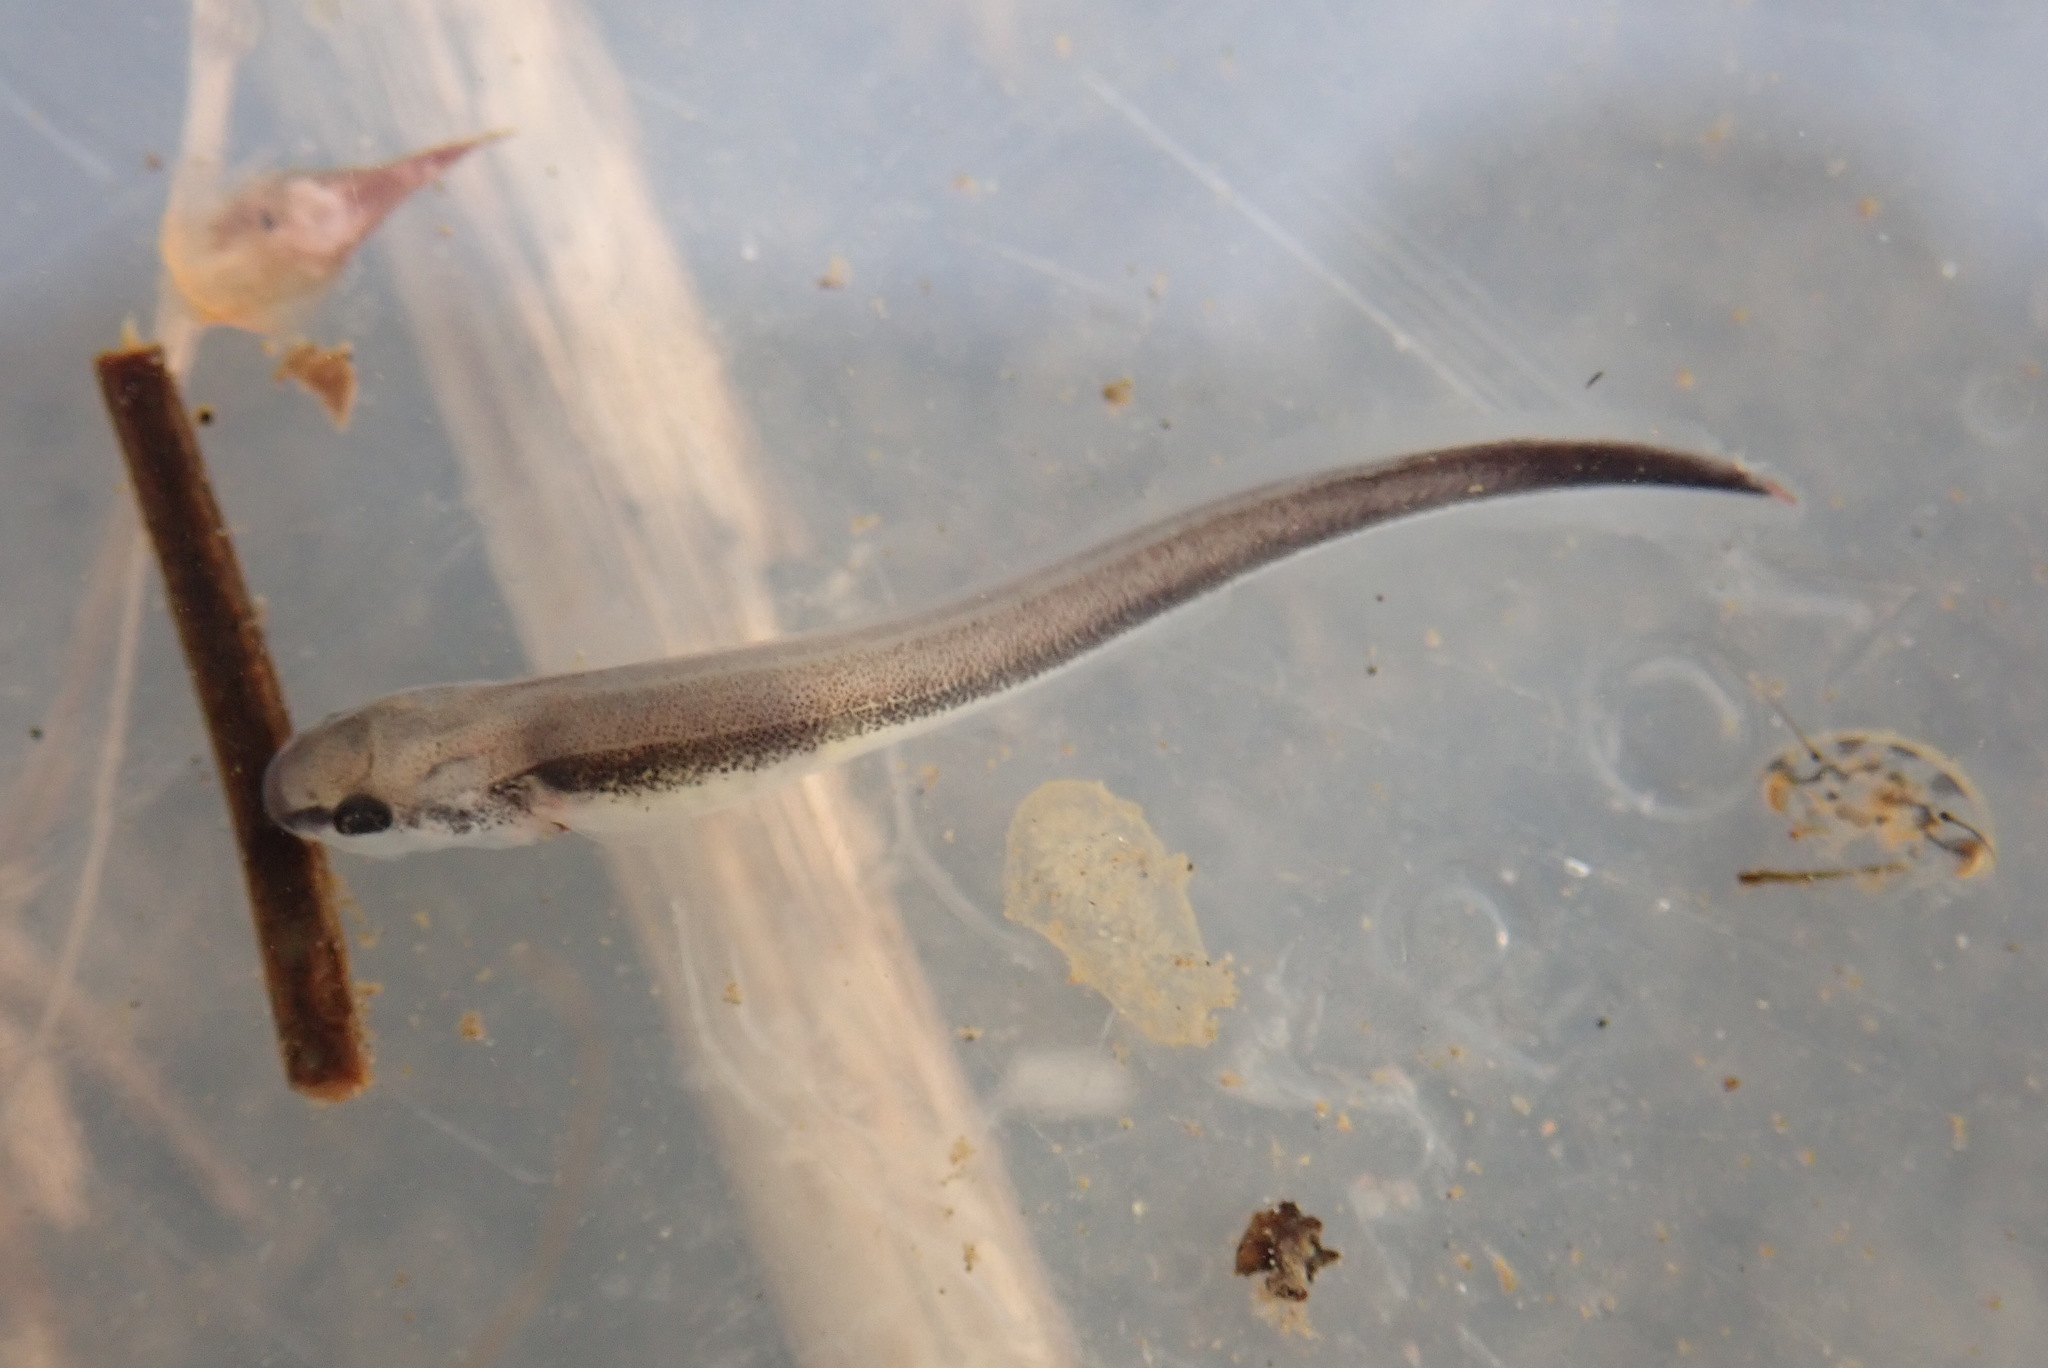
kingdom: Animalia
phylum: Chordata
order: Acipenseriformes
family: Acipenseridae
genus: Acipenser
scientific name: Acipenser fulvescens
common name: Lake sturgeon
